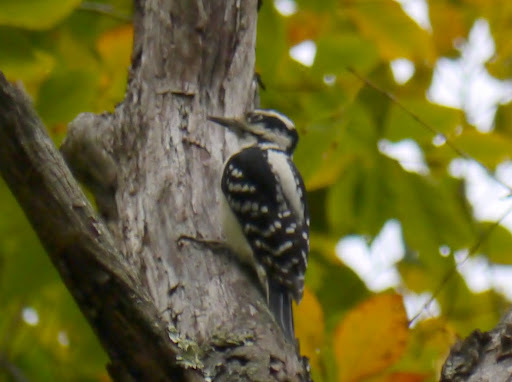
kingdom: Animalia
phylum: Chordata
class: Aves
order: Piciformes
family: Picidae
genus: Leuconotopicus
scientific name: Leuconotopicus villosus
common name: Hairy woodpecker
